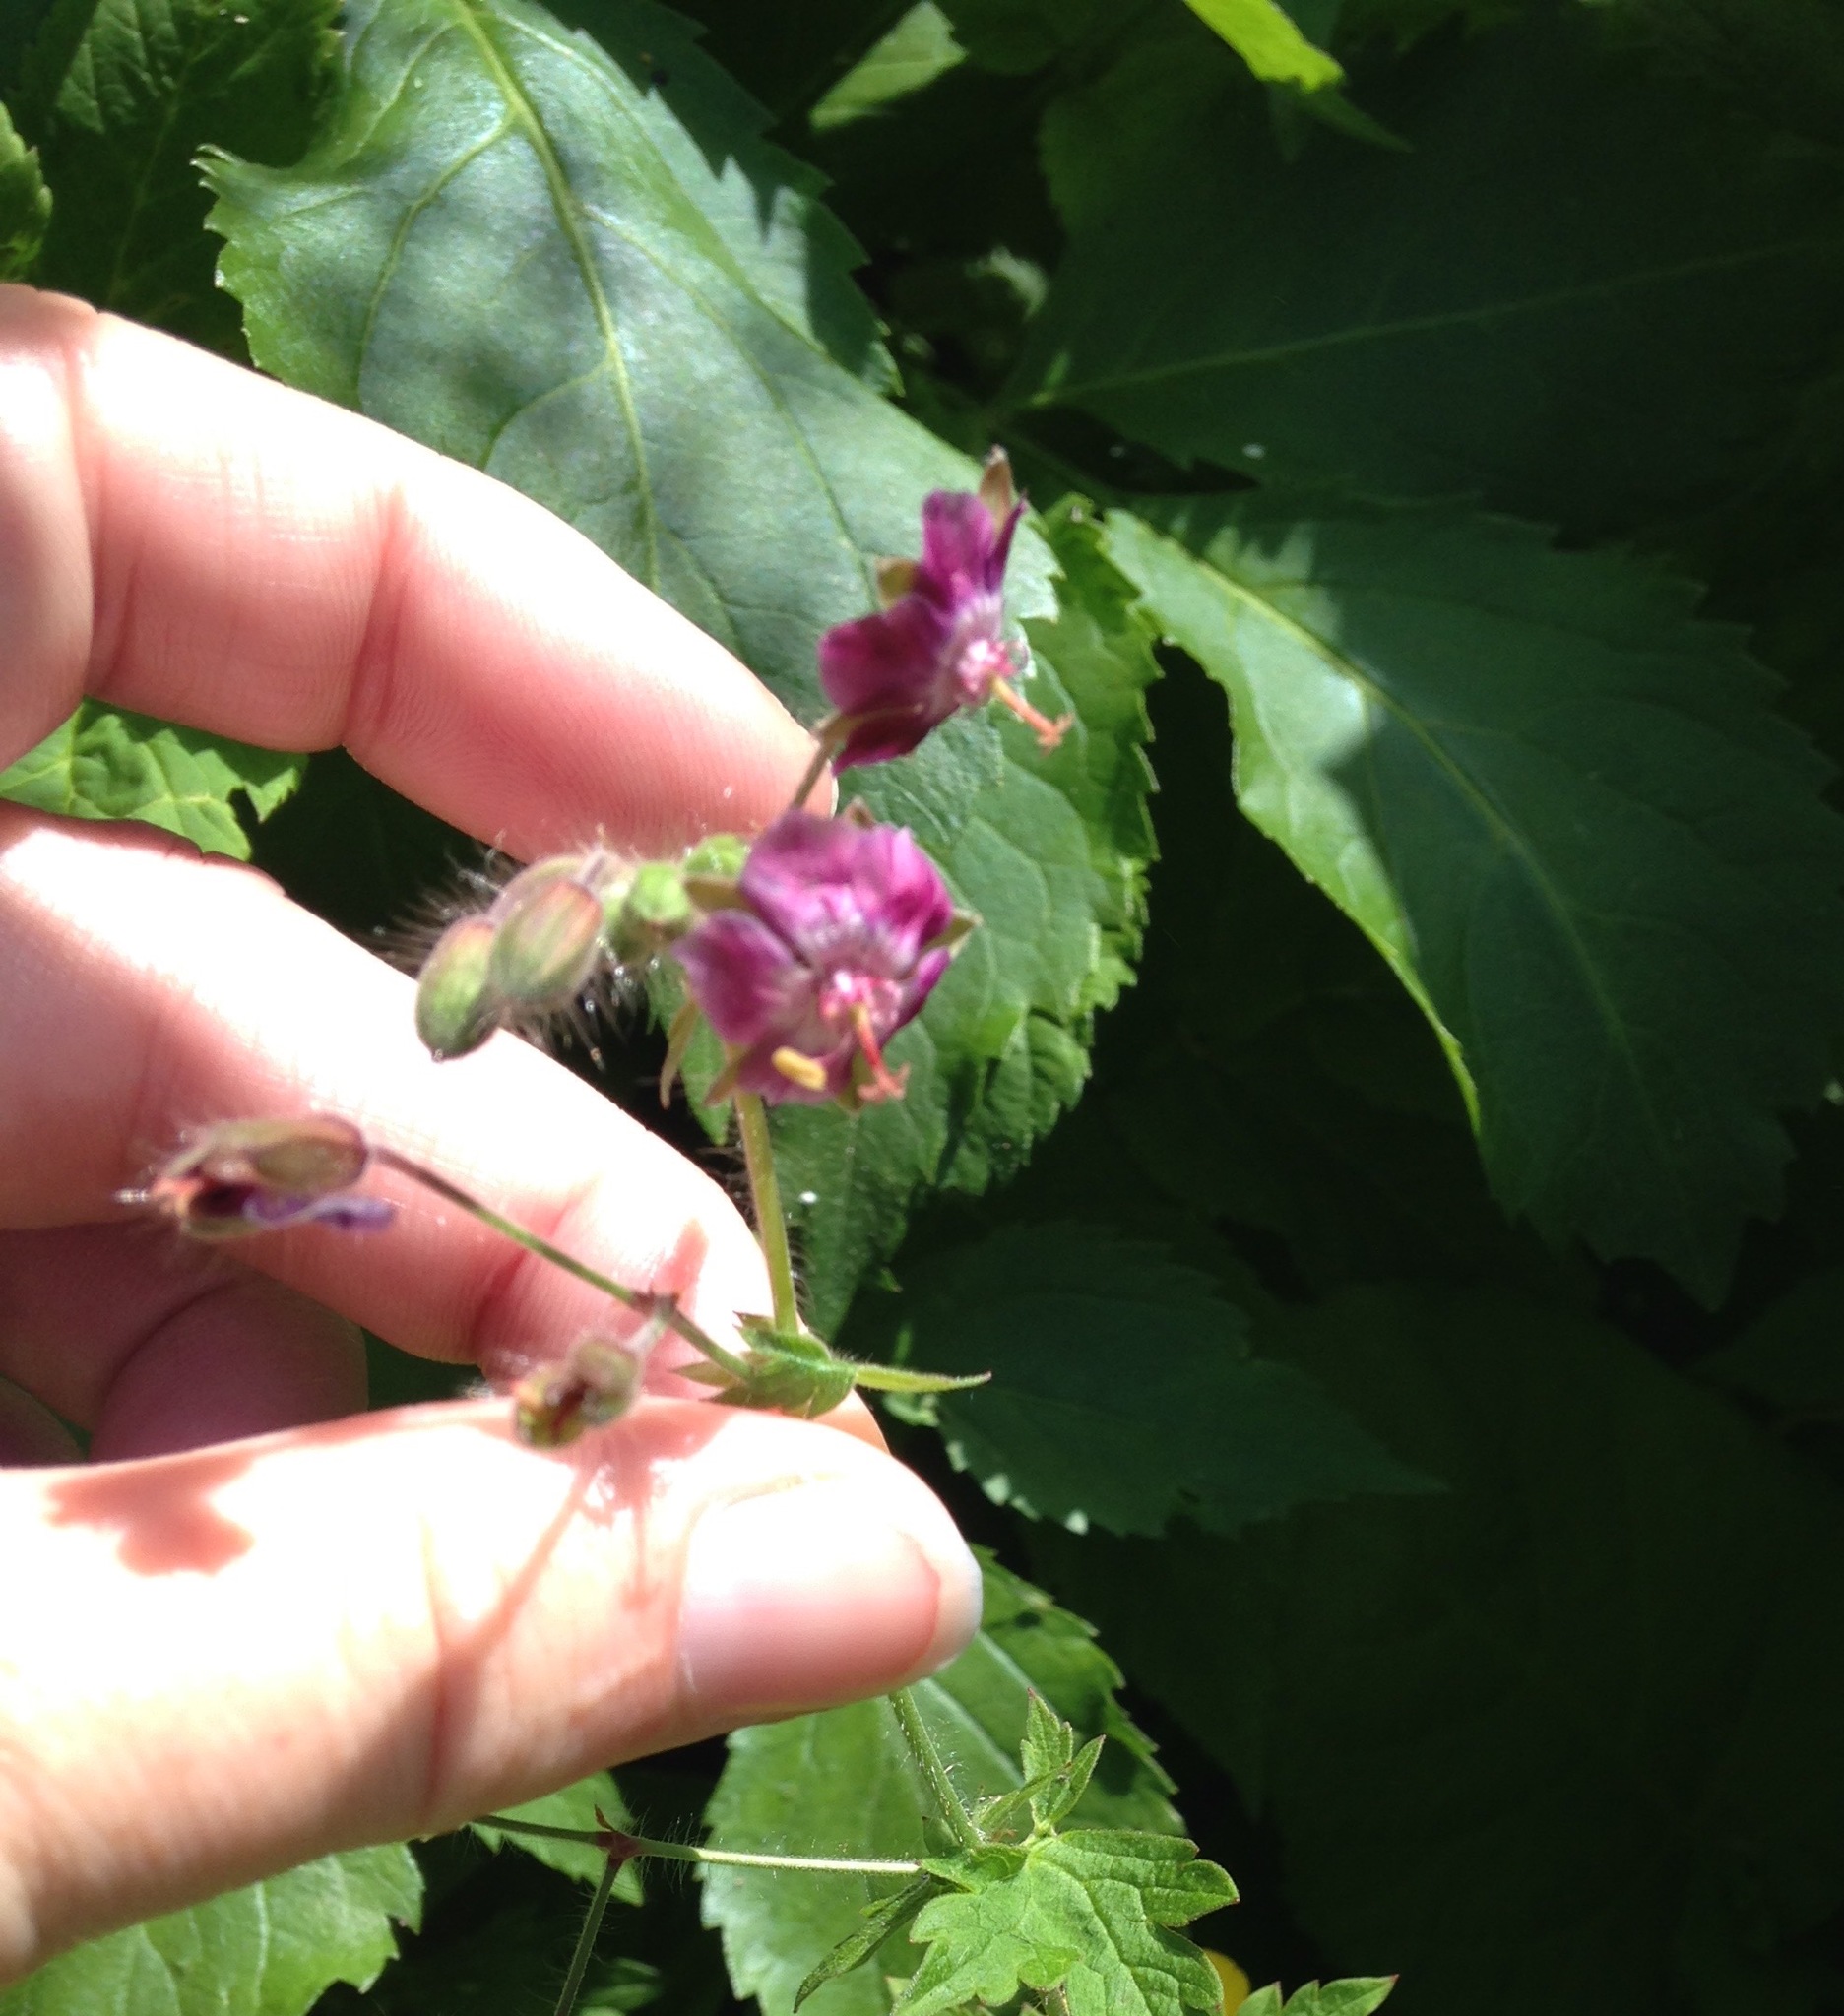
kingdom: Plantae
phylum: Tracheophyta
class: Magnoliopsida
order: Geraniales
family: Geraniaceae
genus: Geranium
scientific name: Geranium phaeum
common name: Dusky crane's-bill
